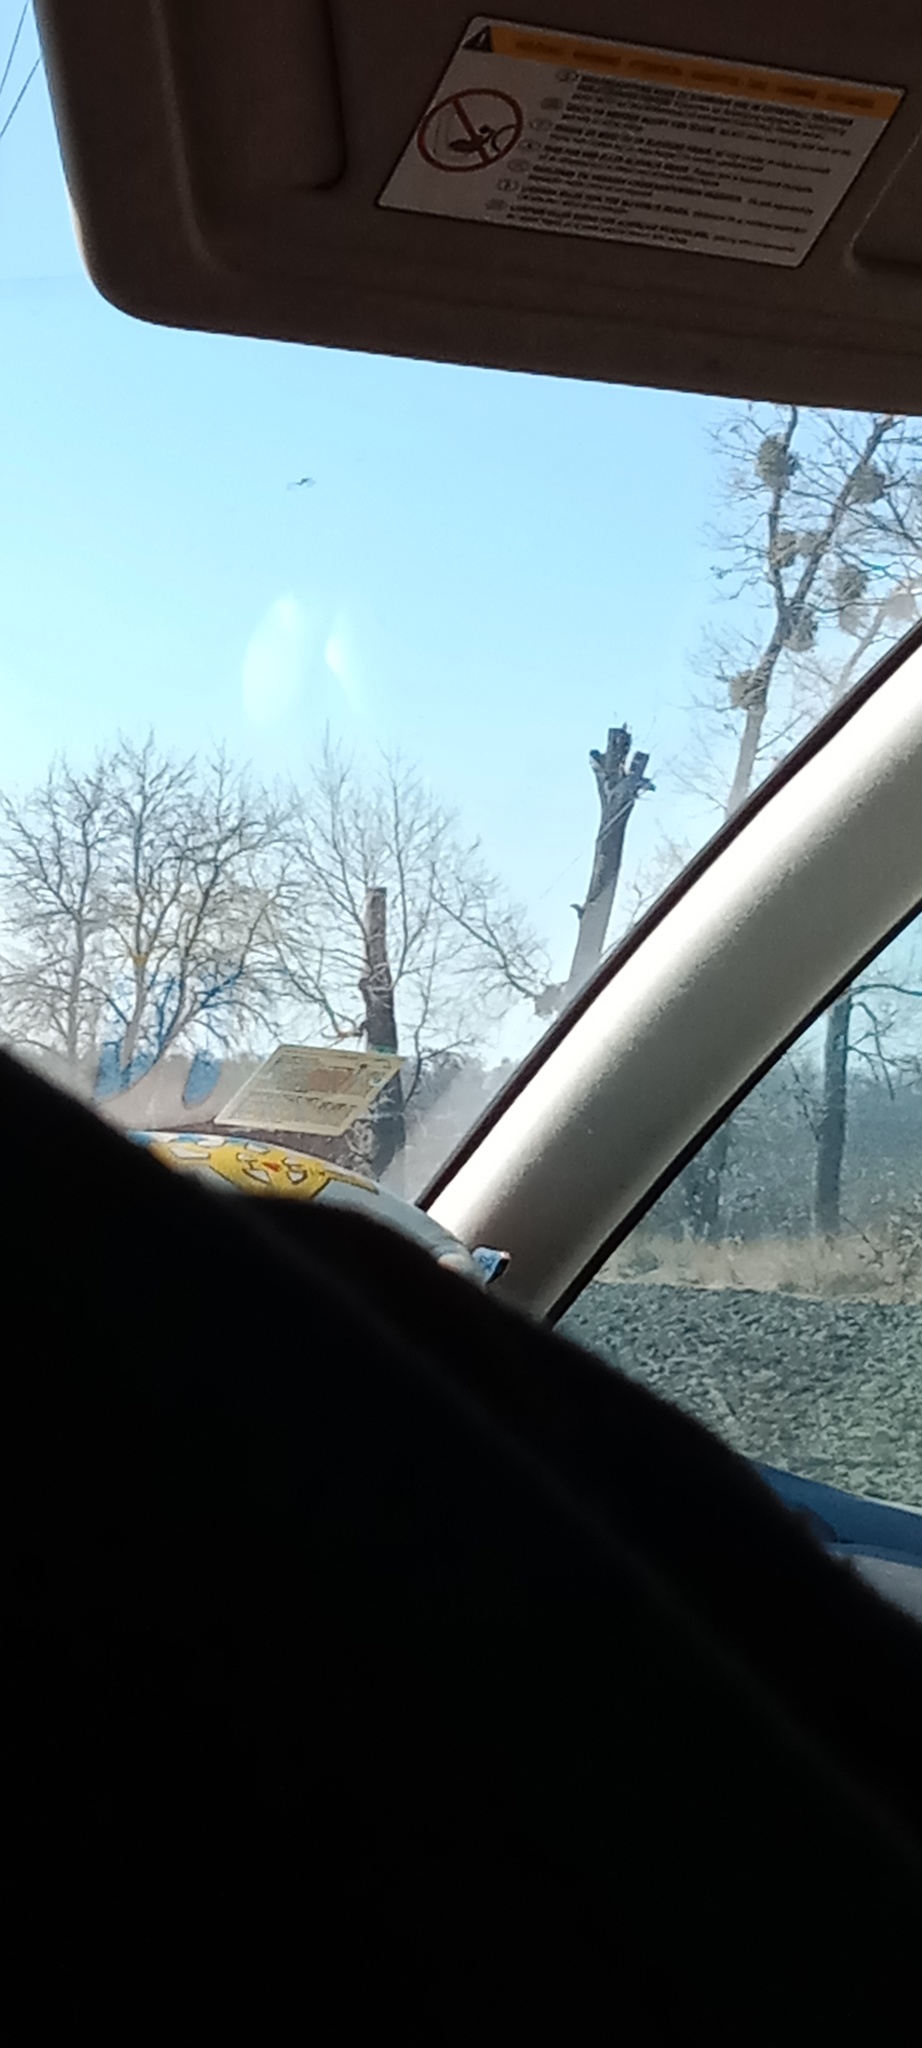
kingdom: Plantae
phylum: Tracheophyta
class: Magnoliopsida
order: Santalales
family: Viscaceae
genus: Viscum
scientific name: Viscum album
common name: Mistletoe
